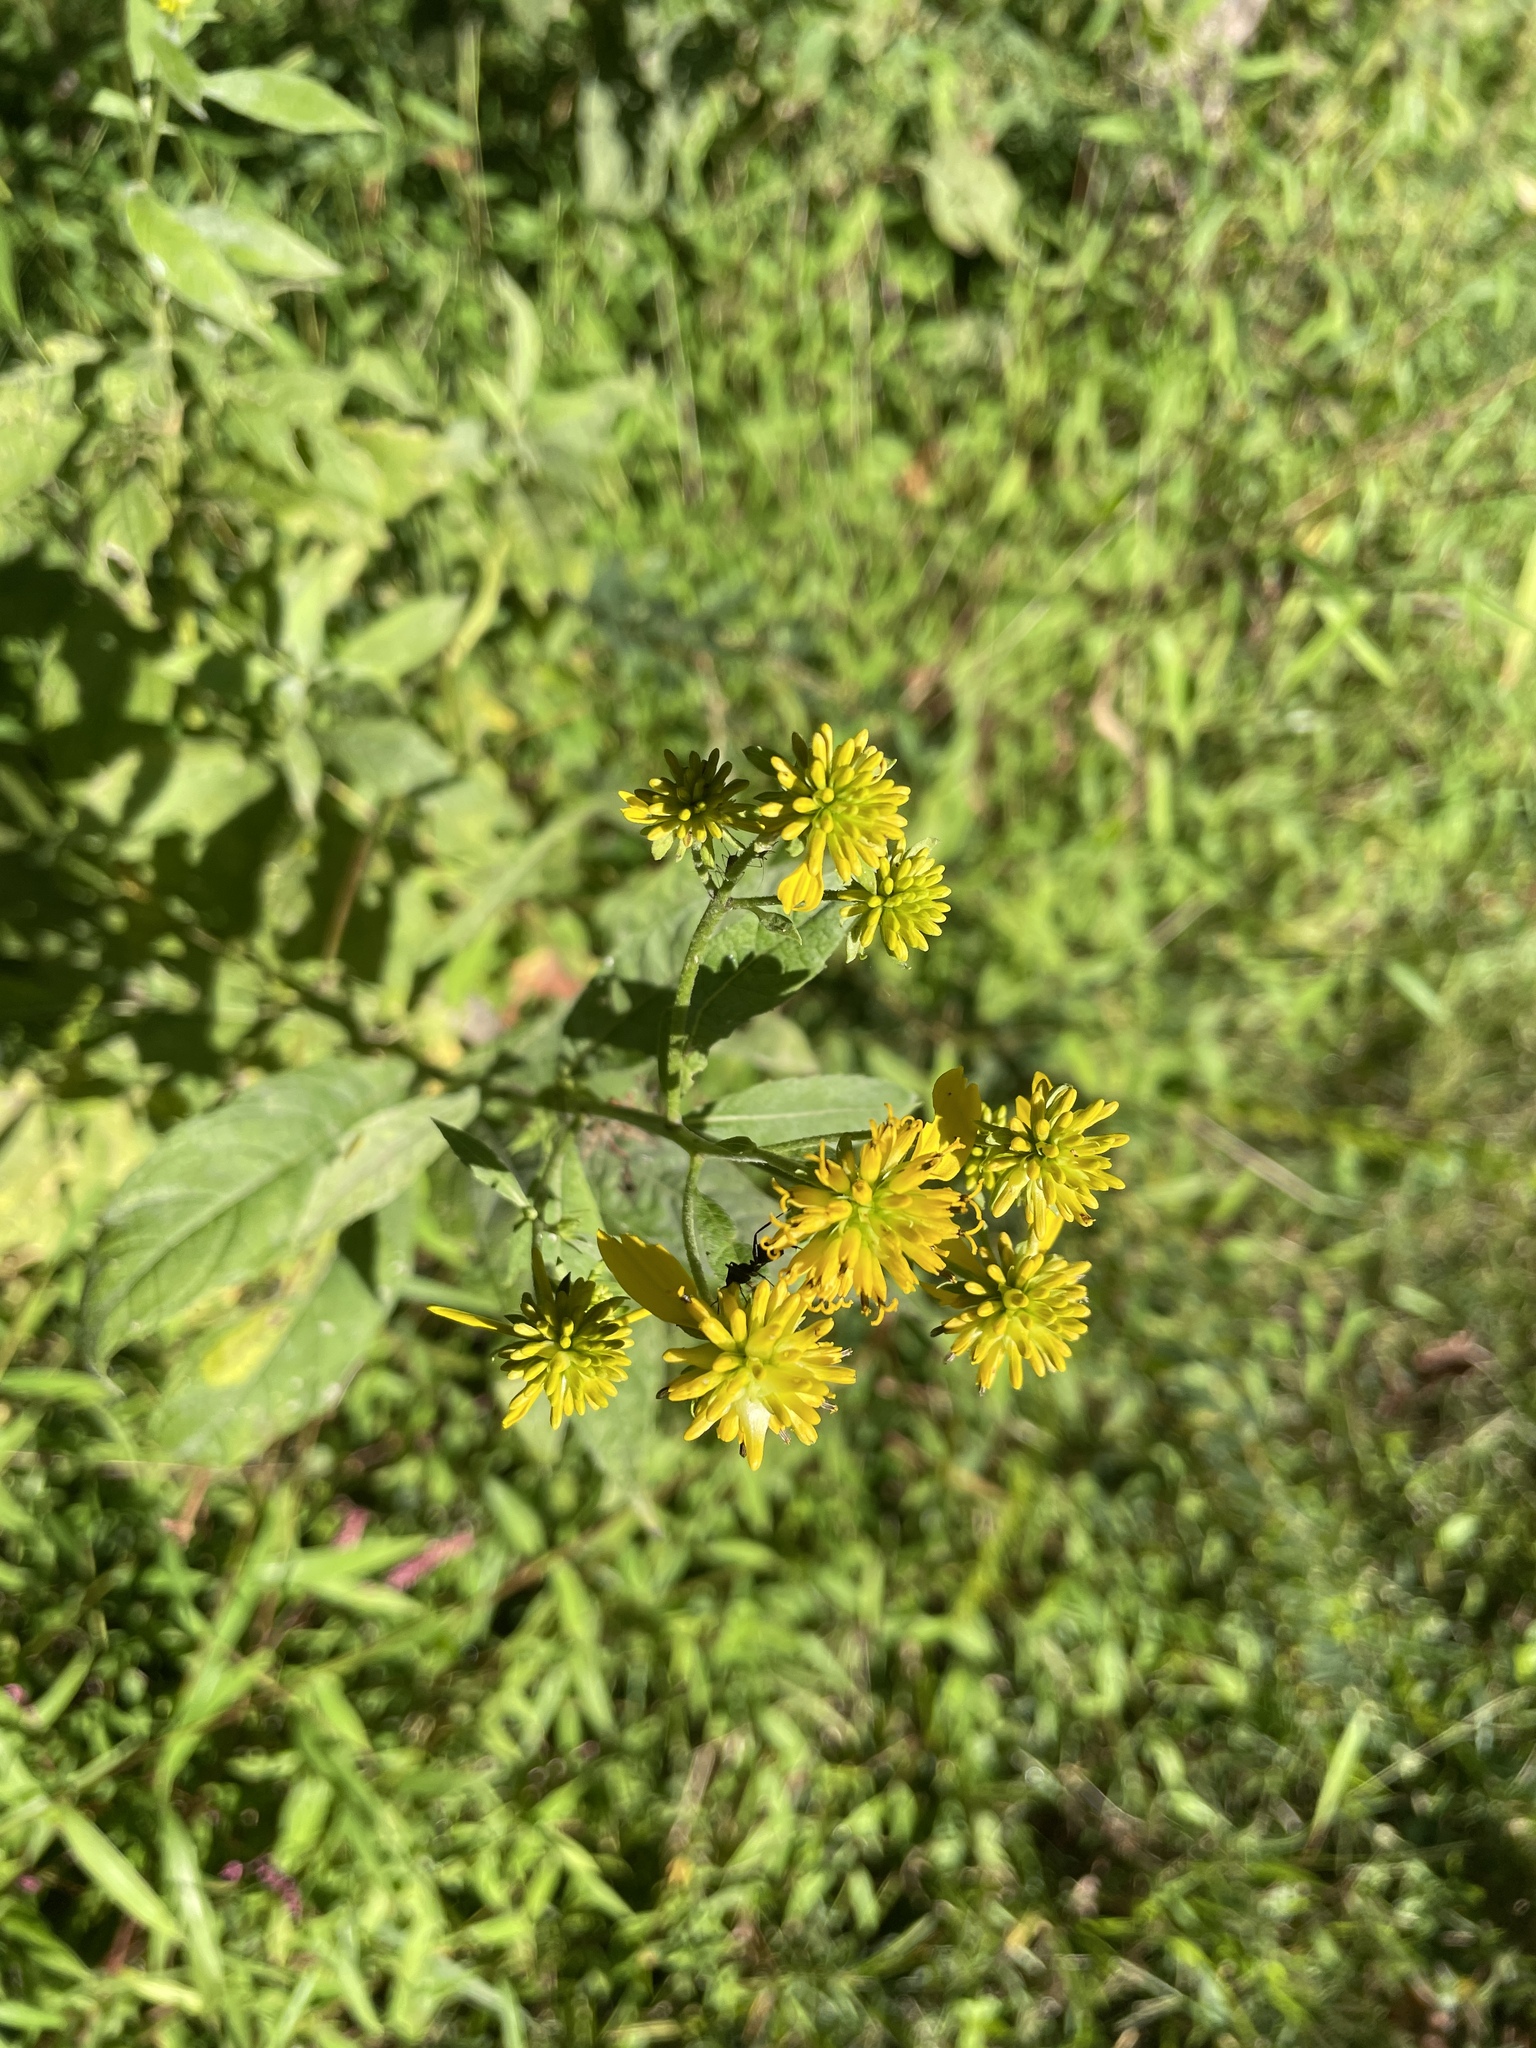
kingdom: Plantae
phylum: Tracheophyta
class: Magnoliopsida
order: Asterales
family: Asteraceae
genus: Verbesina
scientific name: Verbesina alternifolia
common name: Wingstem
